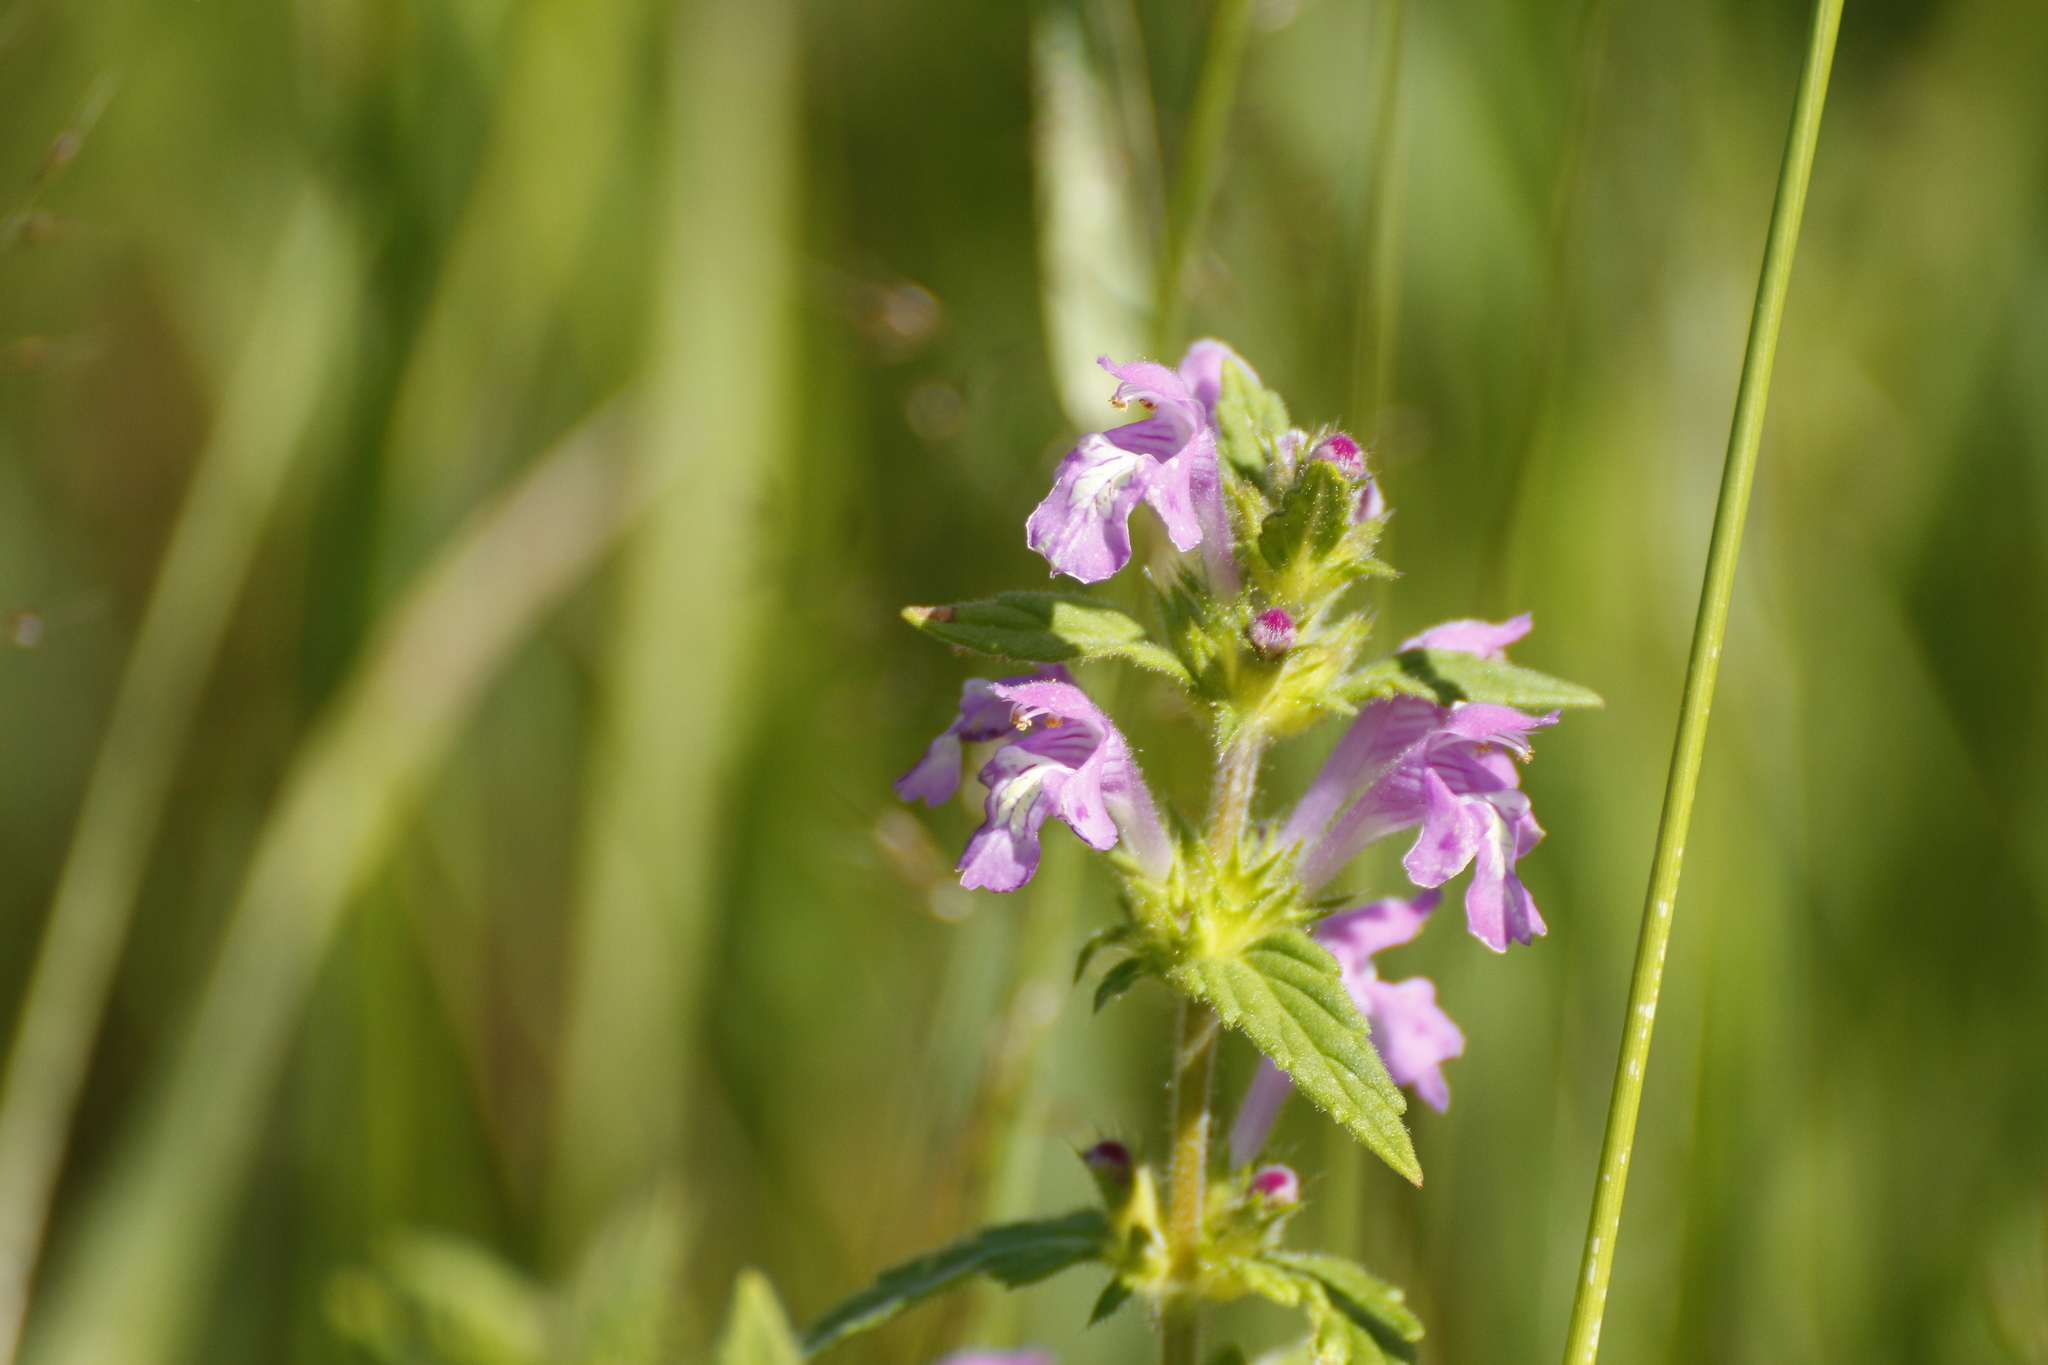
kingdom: Plantae
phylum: Tracheophyta
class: Magnoliopsida
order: Lamiales
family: Lamiaceae
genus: Galeopsis
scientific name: Galeopsis ladanum
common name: Broad-leaved hemp-nettle
